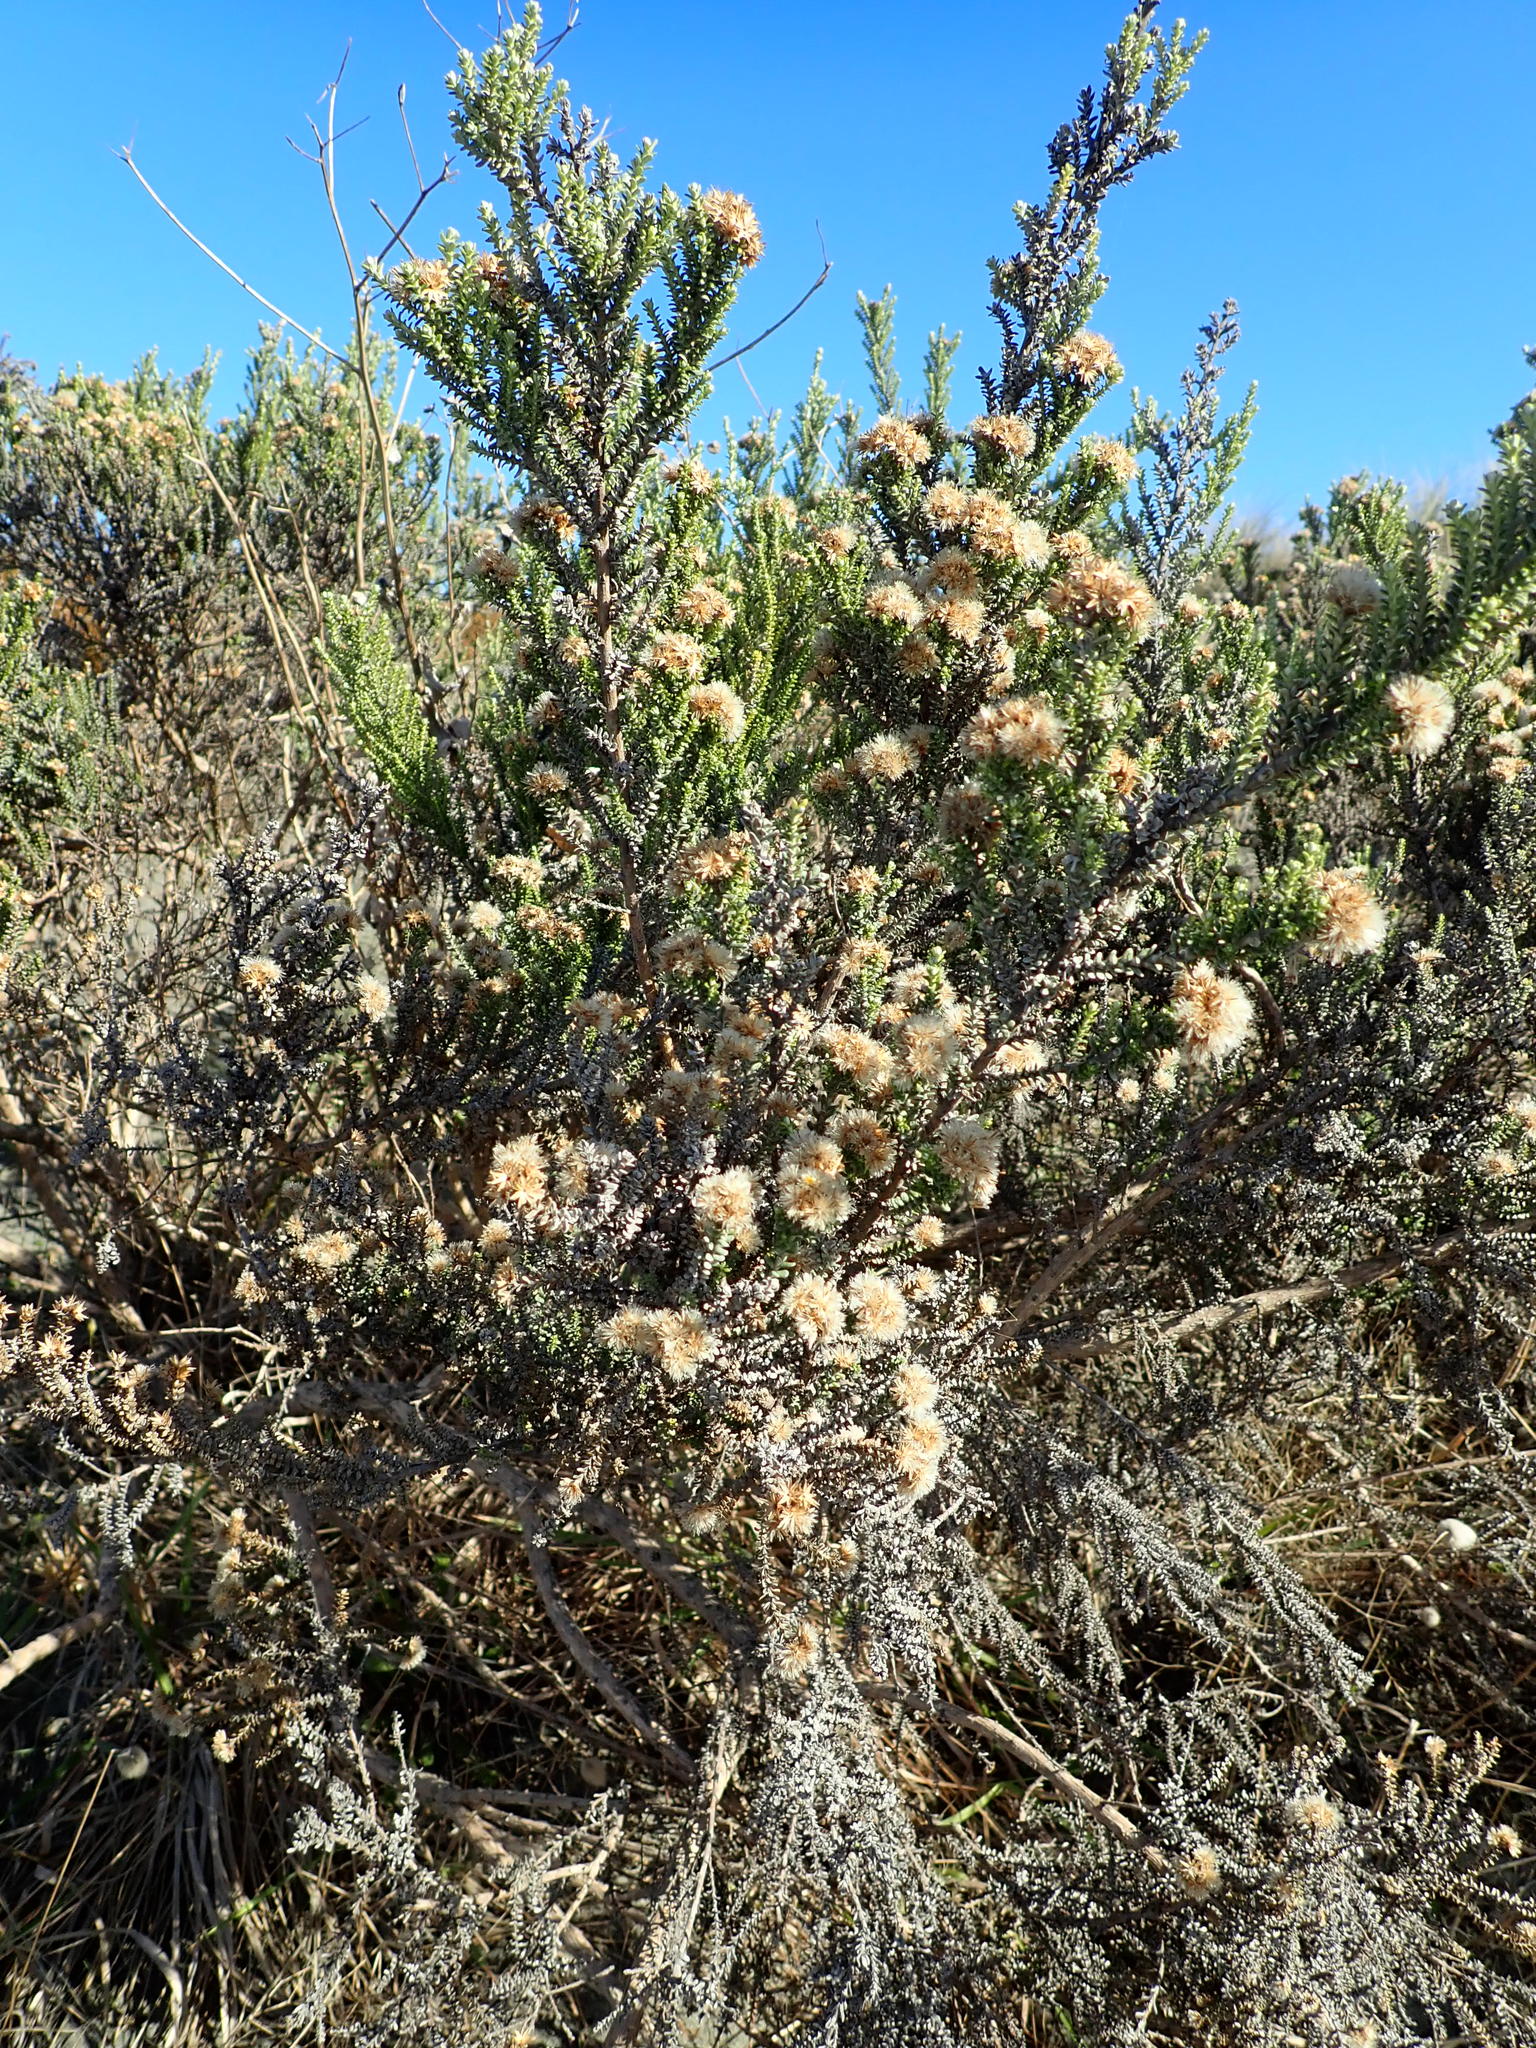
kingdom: Plantae
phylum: Tracheophyta
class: Magnoliopsida
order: Asterales
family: Asteraceae
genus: Ozothamnus
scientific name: Ozothamnus leptophyllus
